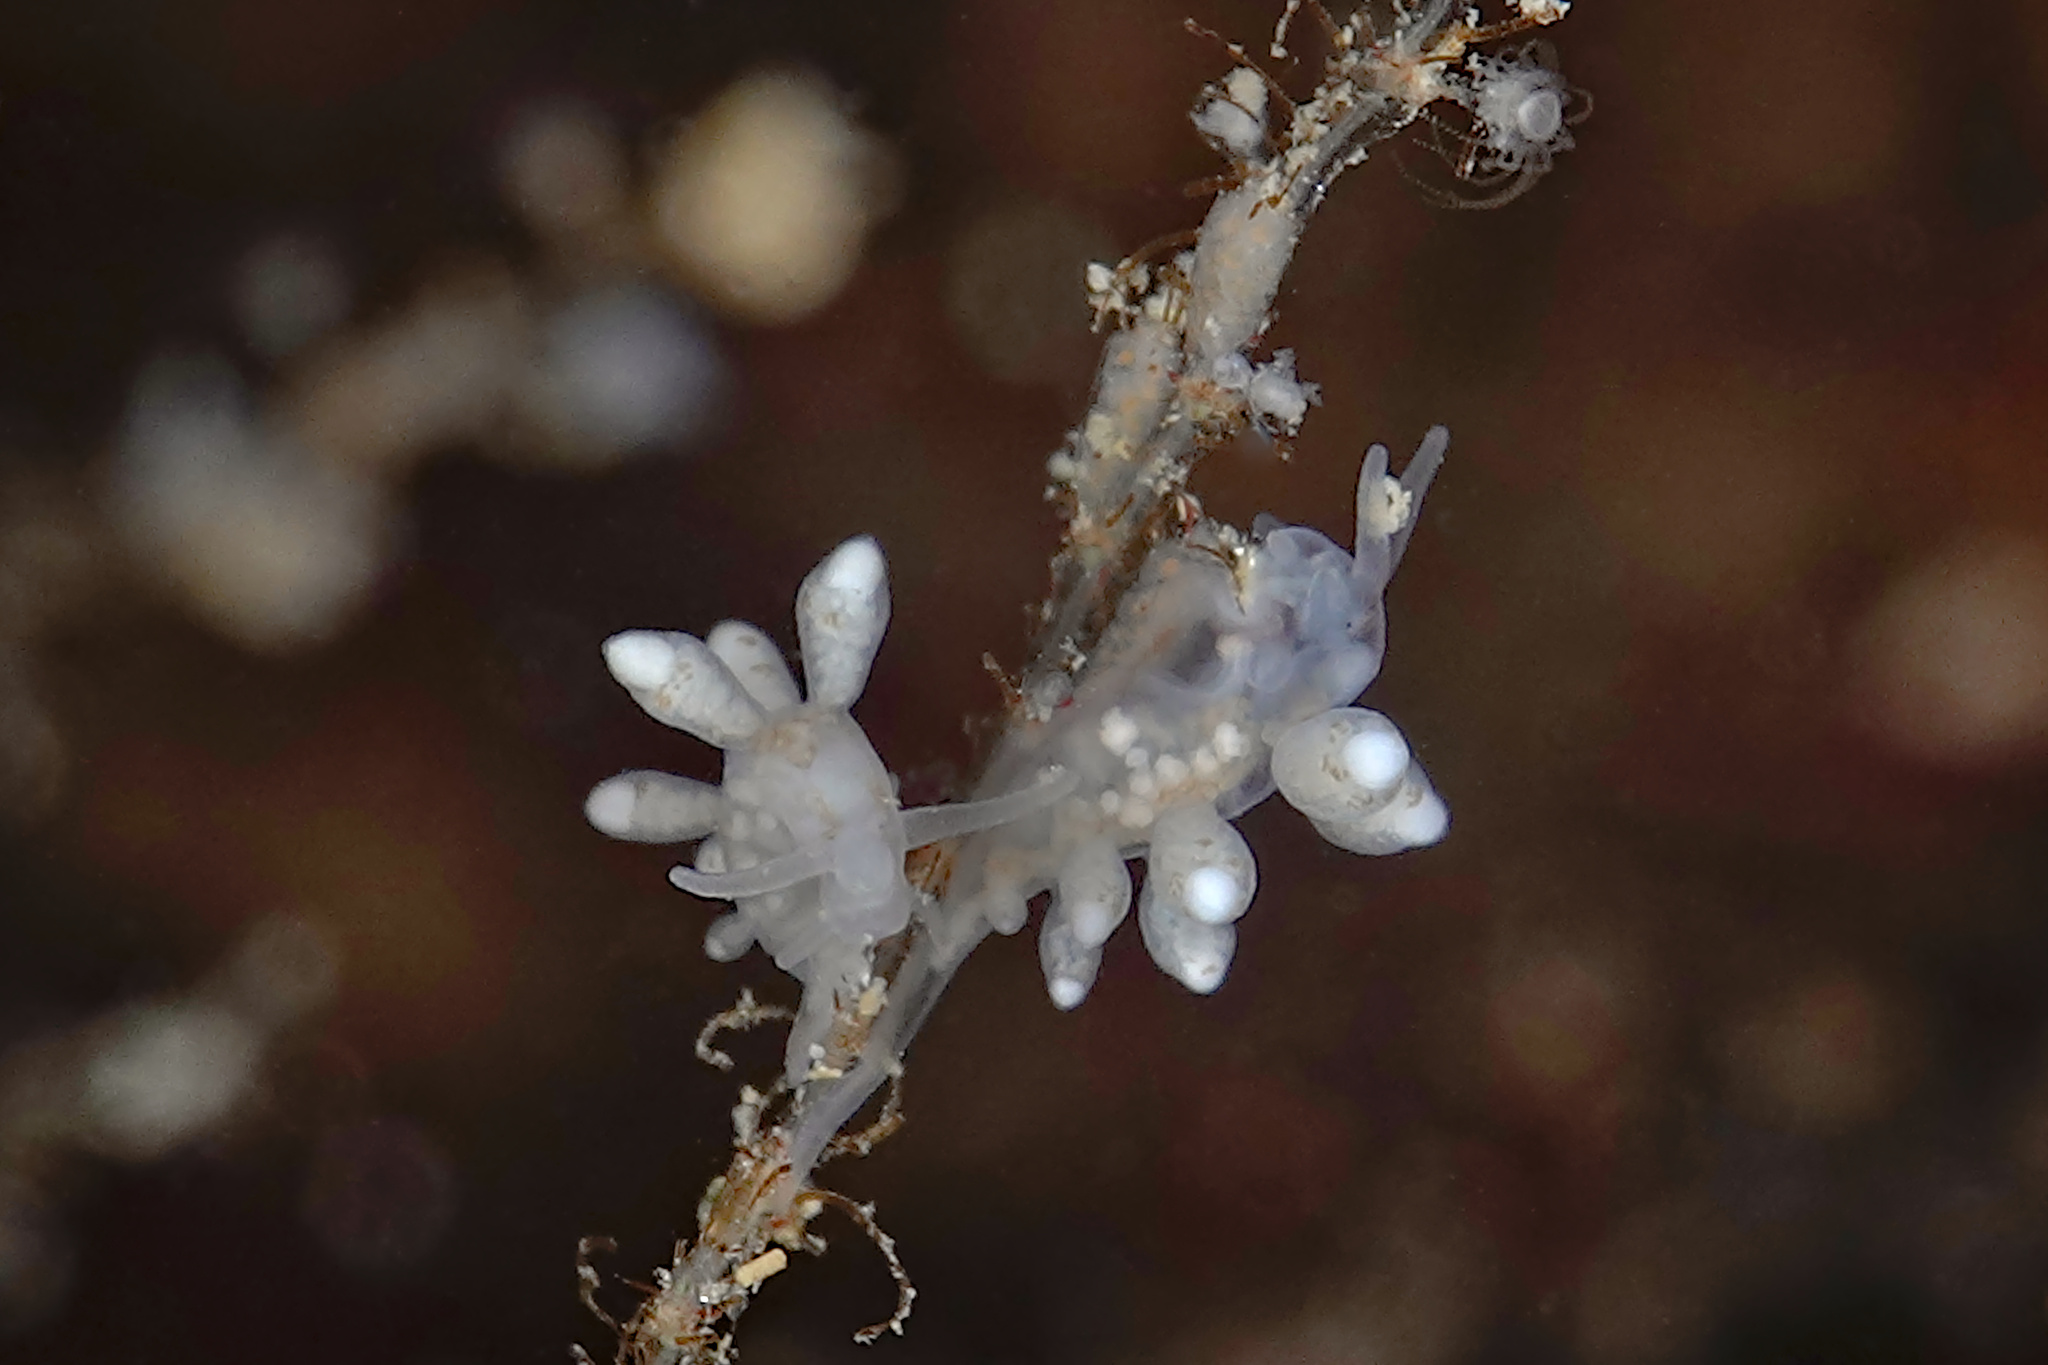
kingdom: Animalia
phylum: Mollusca
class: Gastropoda
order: Nudibranchia
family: Tergipedidae
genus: Tergipes
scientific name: Tergipes tergipes
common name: Johnston's balloon eolis
